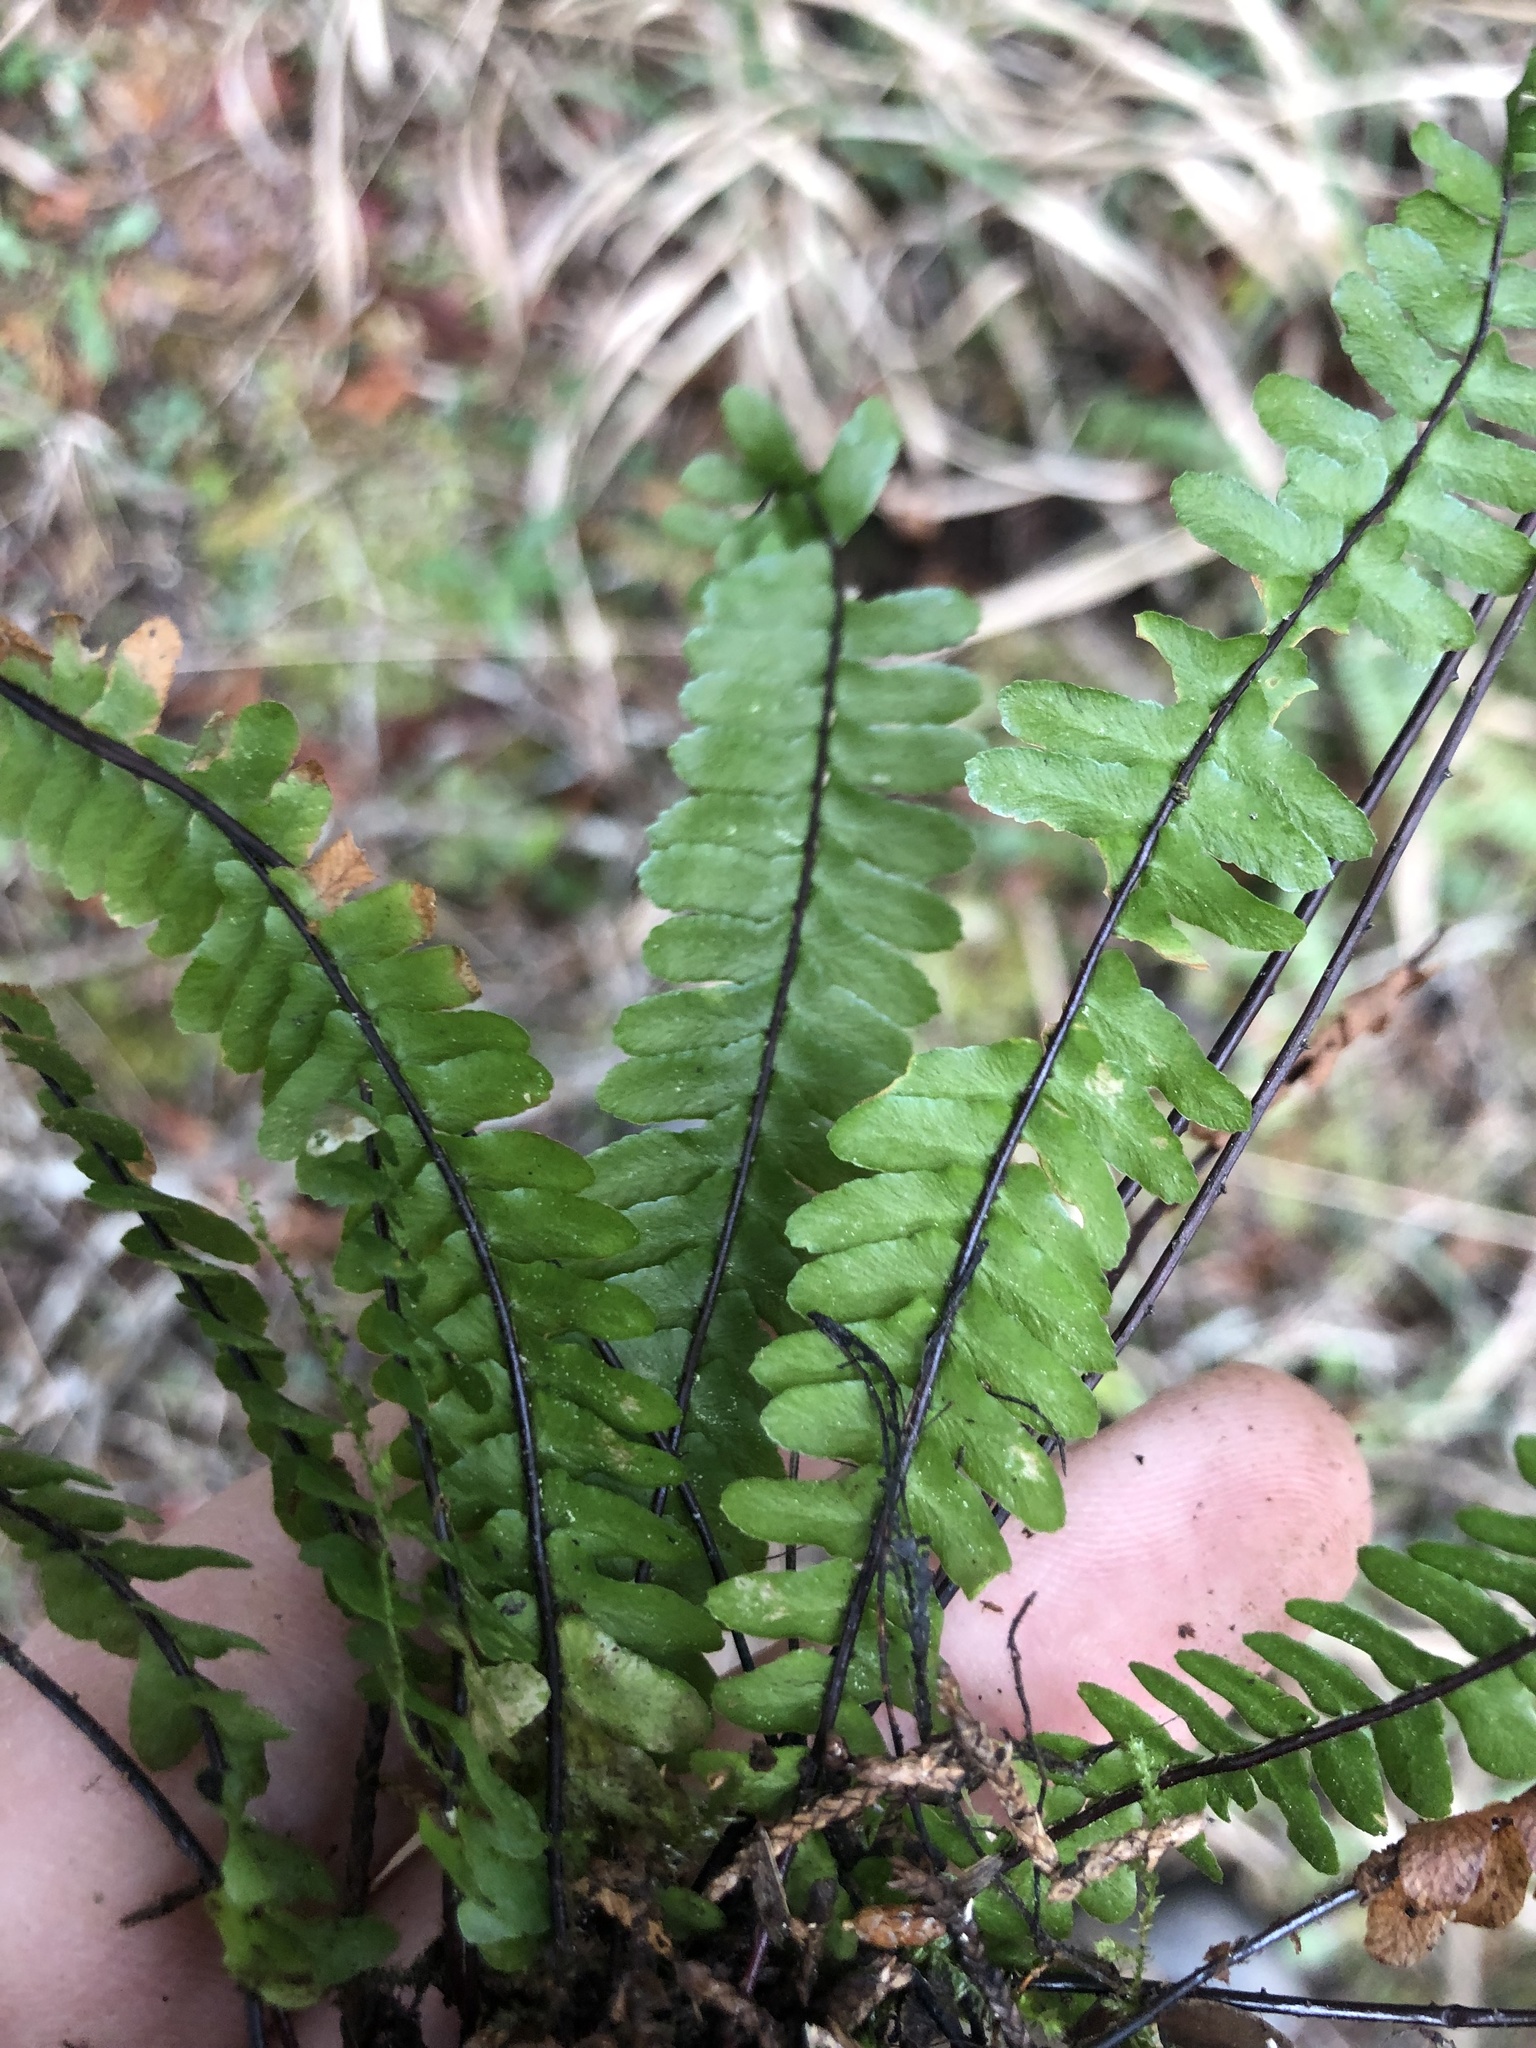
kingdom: Plantae
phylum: Tracheophyta
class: Polypodiopsida
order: Polypodiales
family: Aspleniaceae
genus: Asplenium
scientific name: Asplenium platyneuron
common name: Ebony spleenwort
